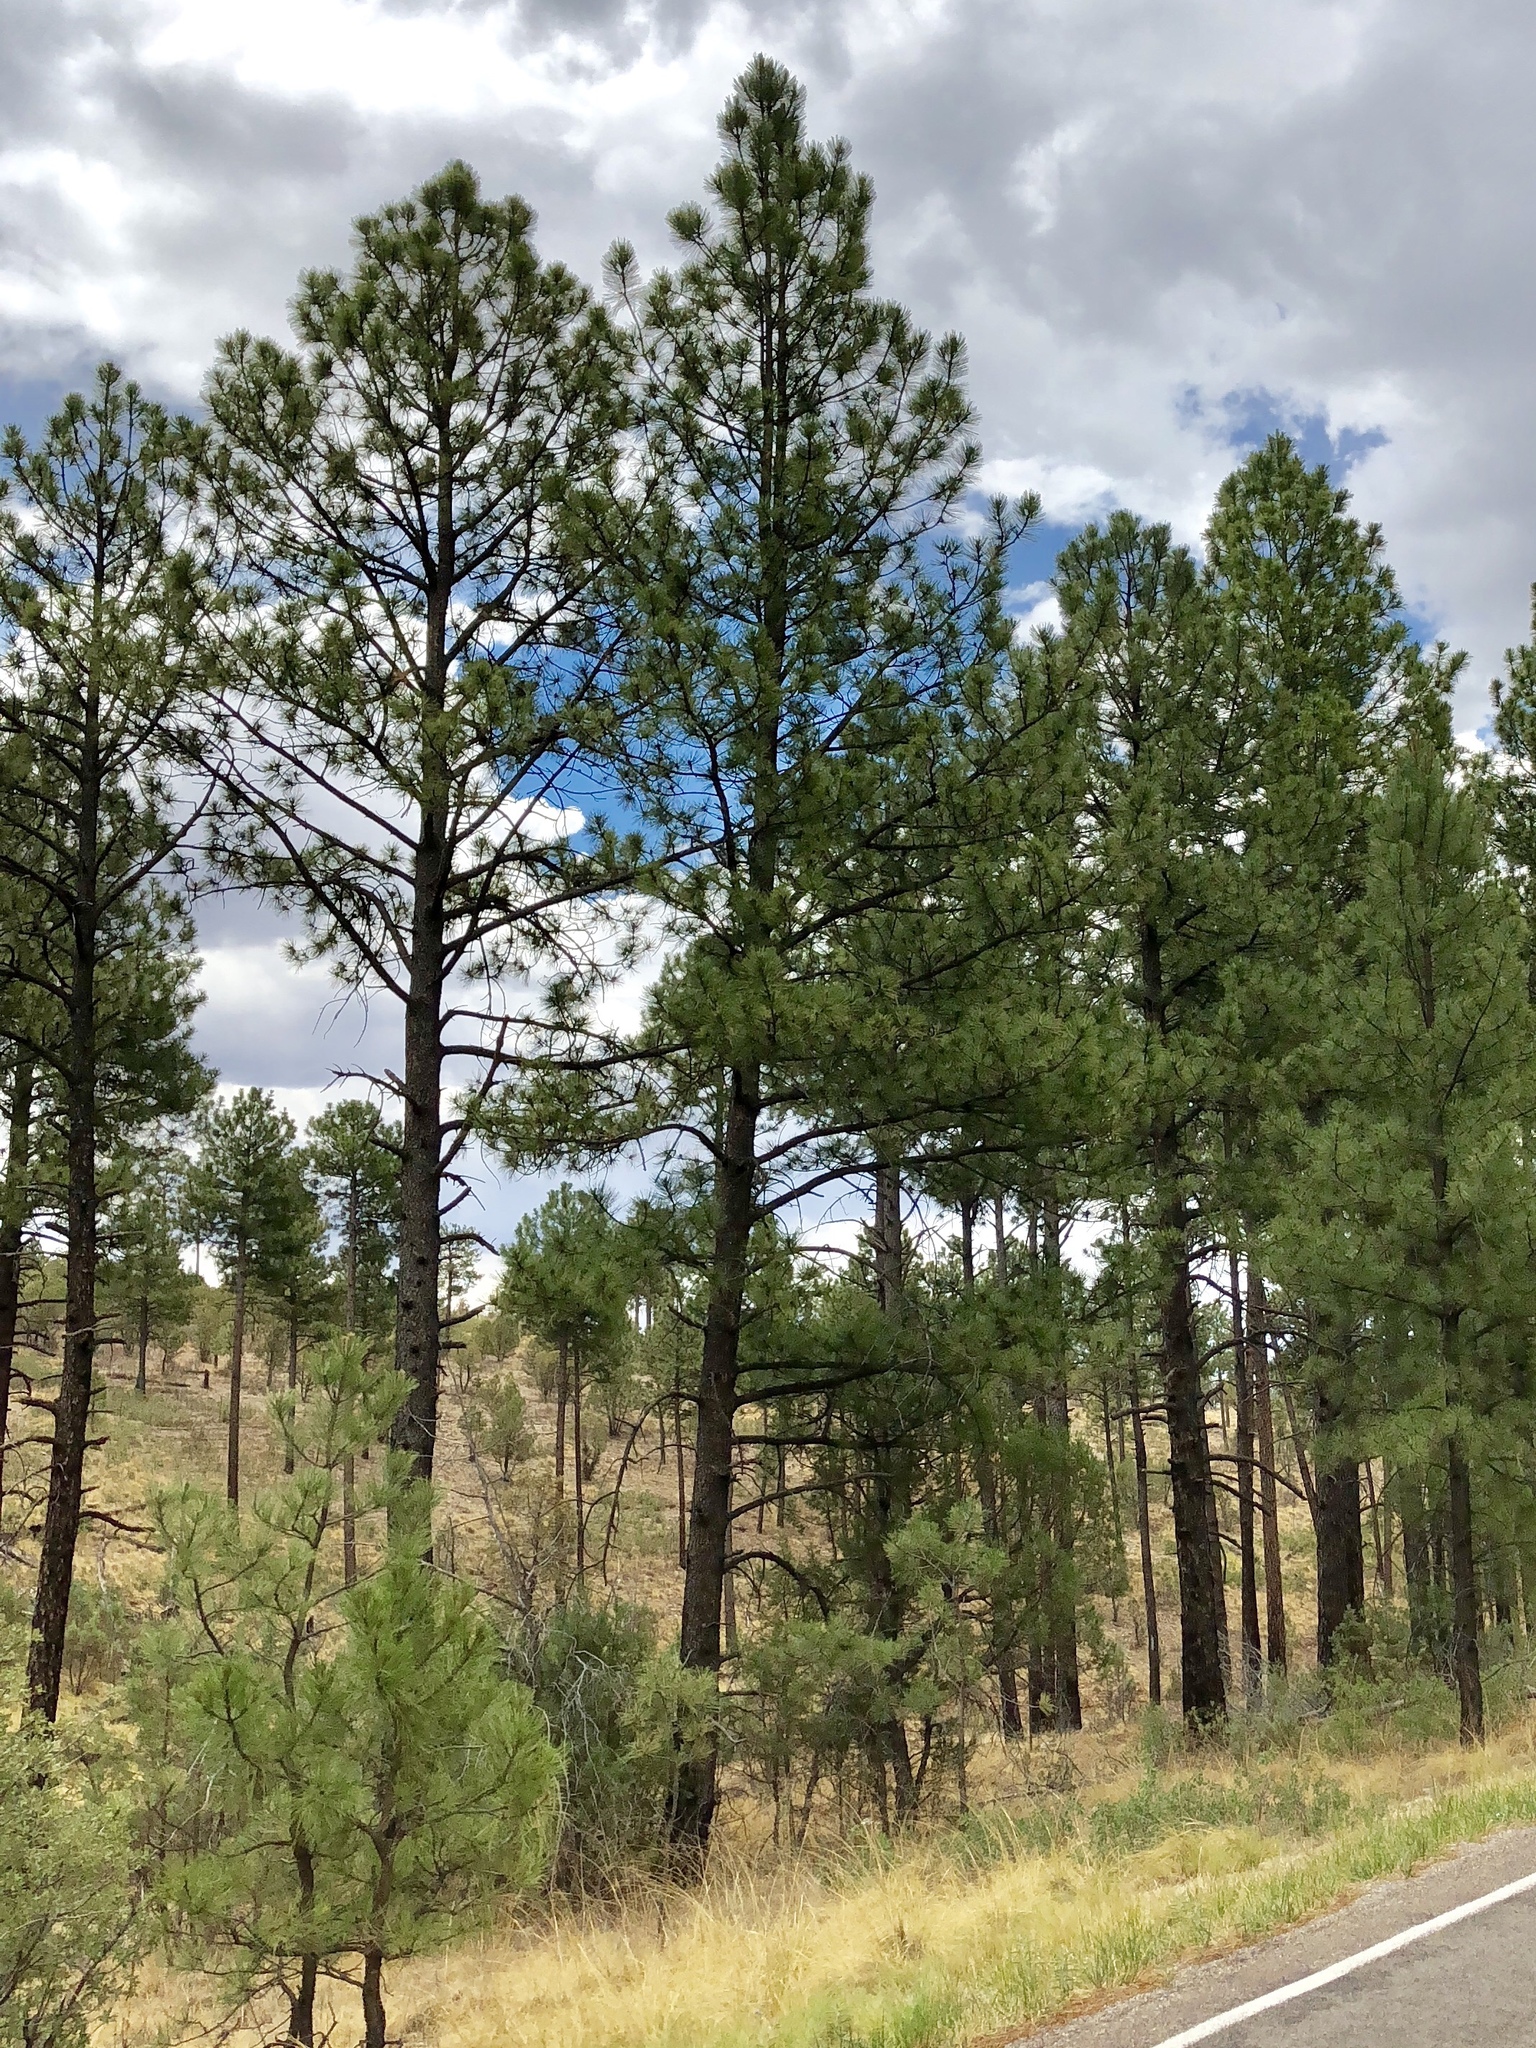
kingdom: Plantae
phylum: Tracheophyta
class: Pinopsida
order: Pinales
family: Pinaceae
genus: Pinus
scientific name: Pinus ponderosa
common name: Western yellow-pine
